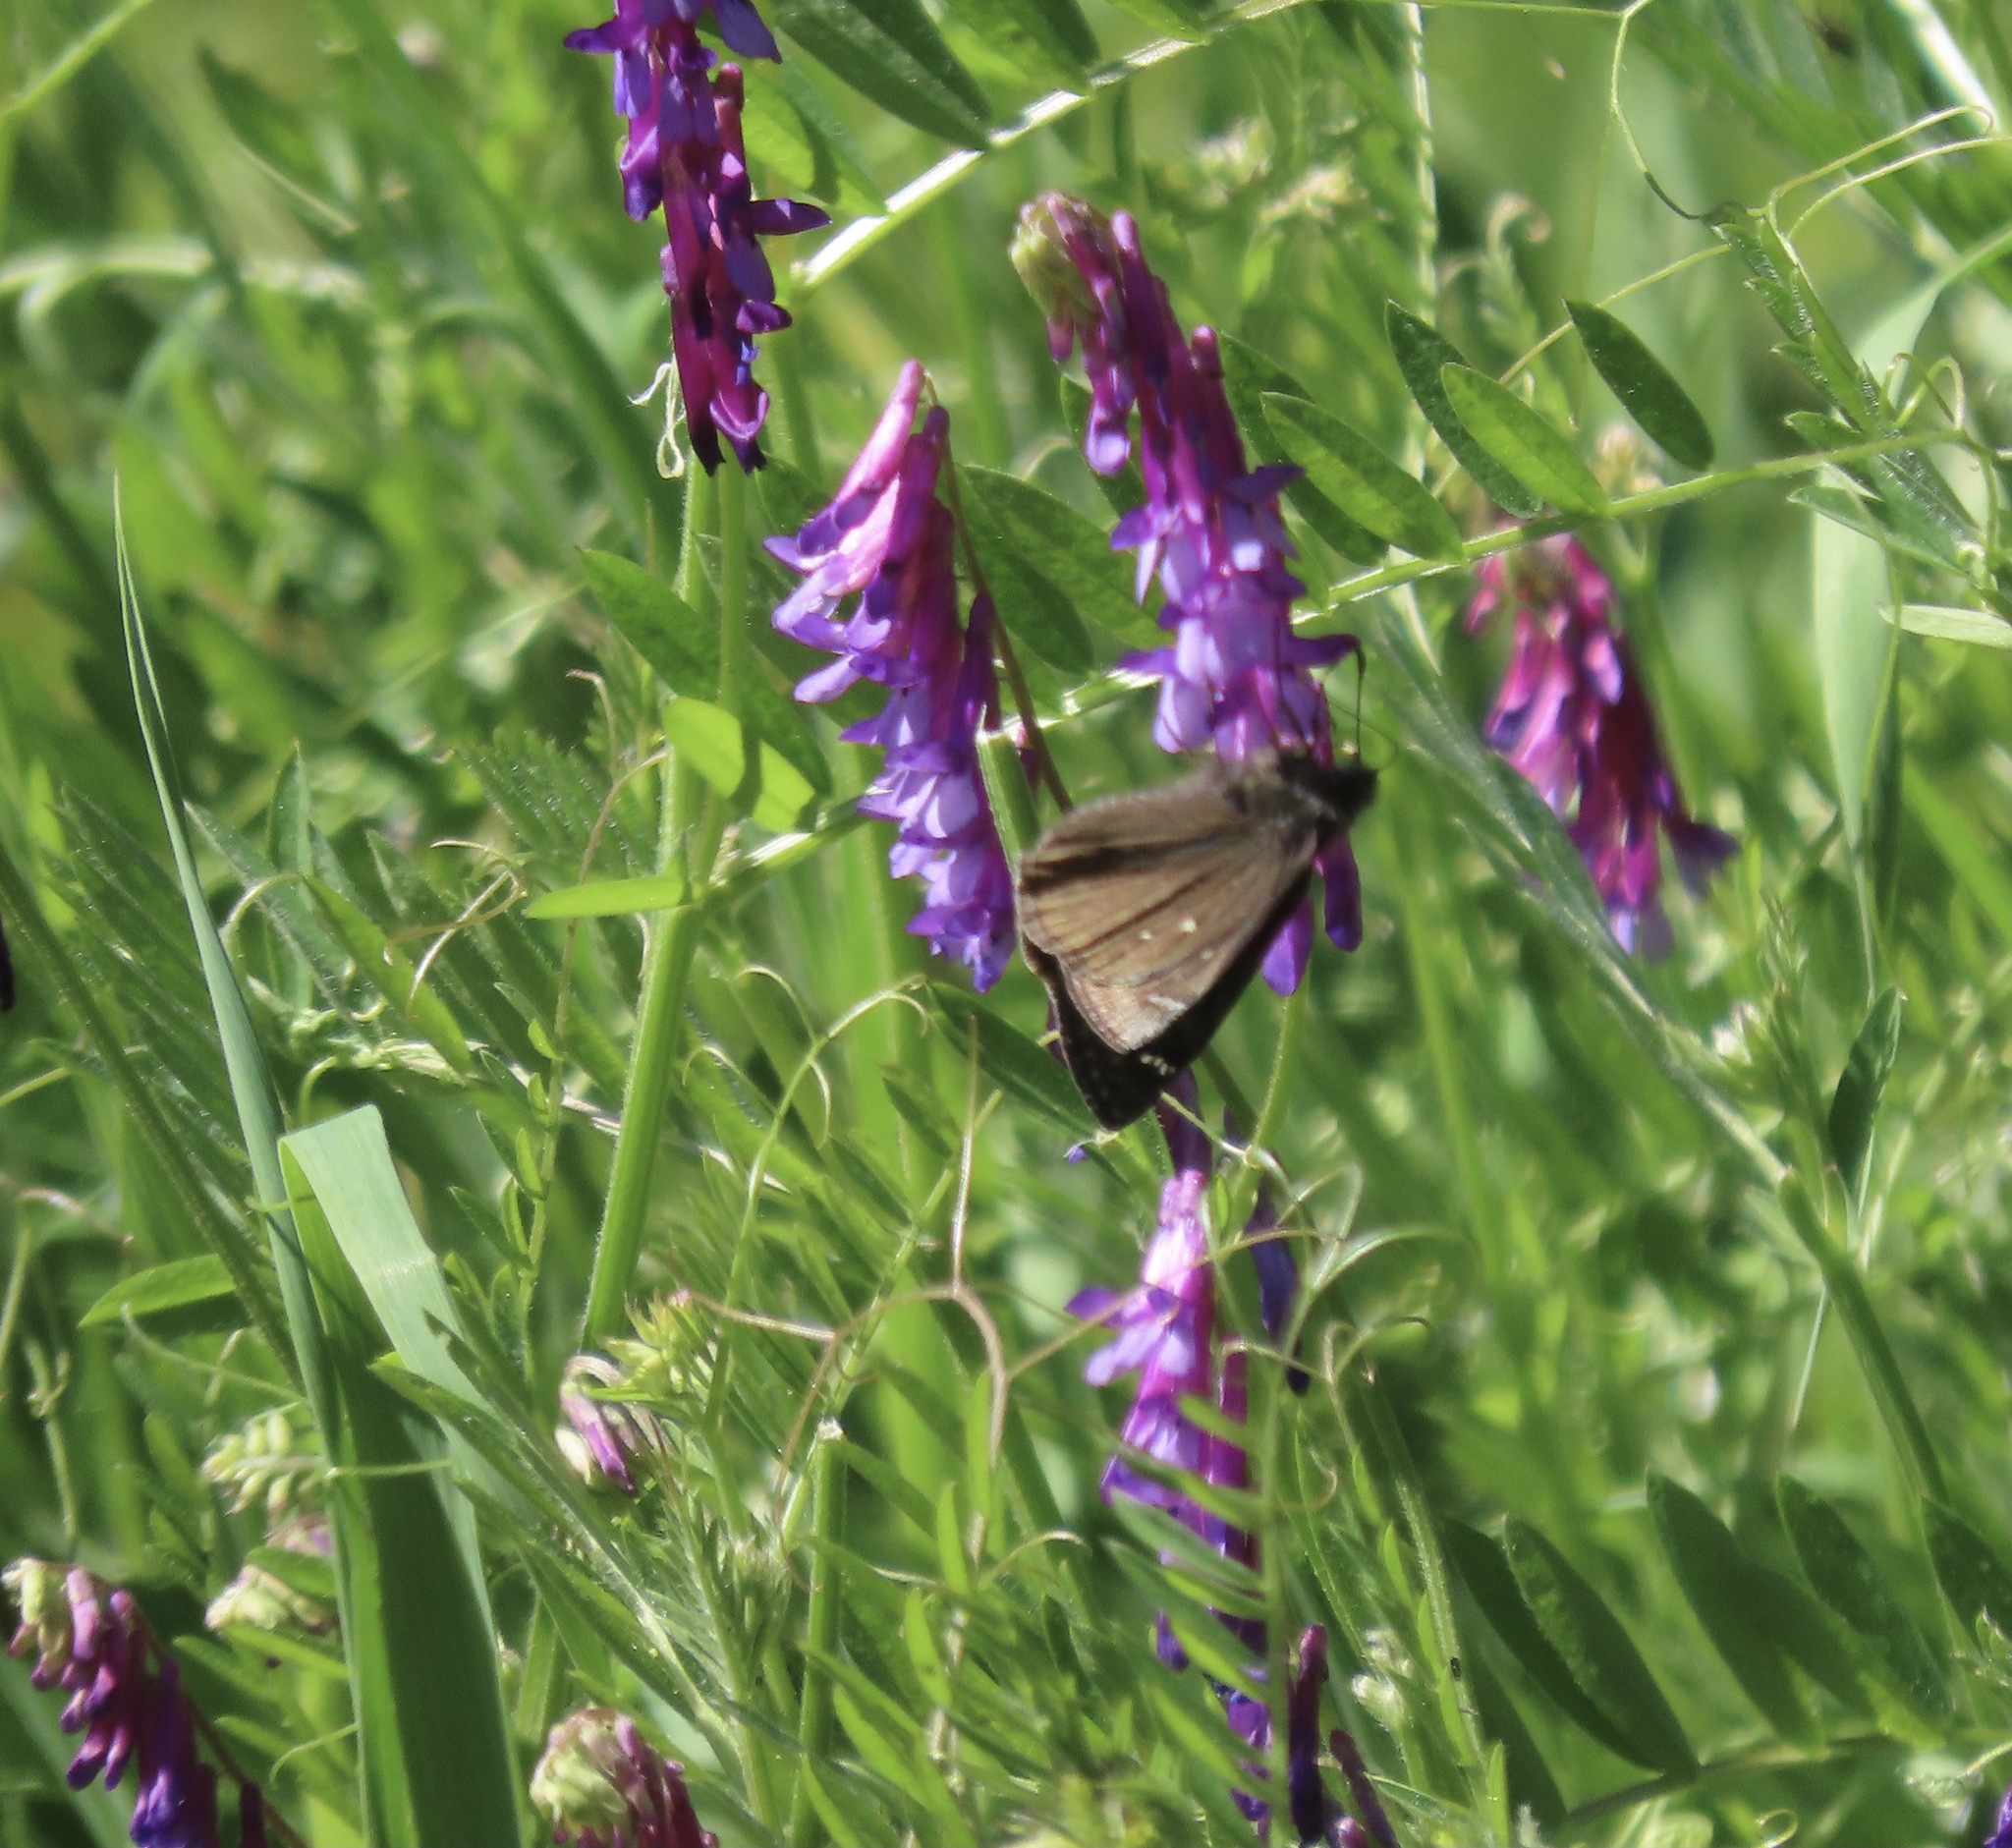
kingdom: Animalia
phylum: Arthropoda
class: Insecta
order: Lepidoptera
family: Hesperiidae
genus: Erynnis
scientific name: Erynnis propertius
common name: Propertius duskywing
